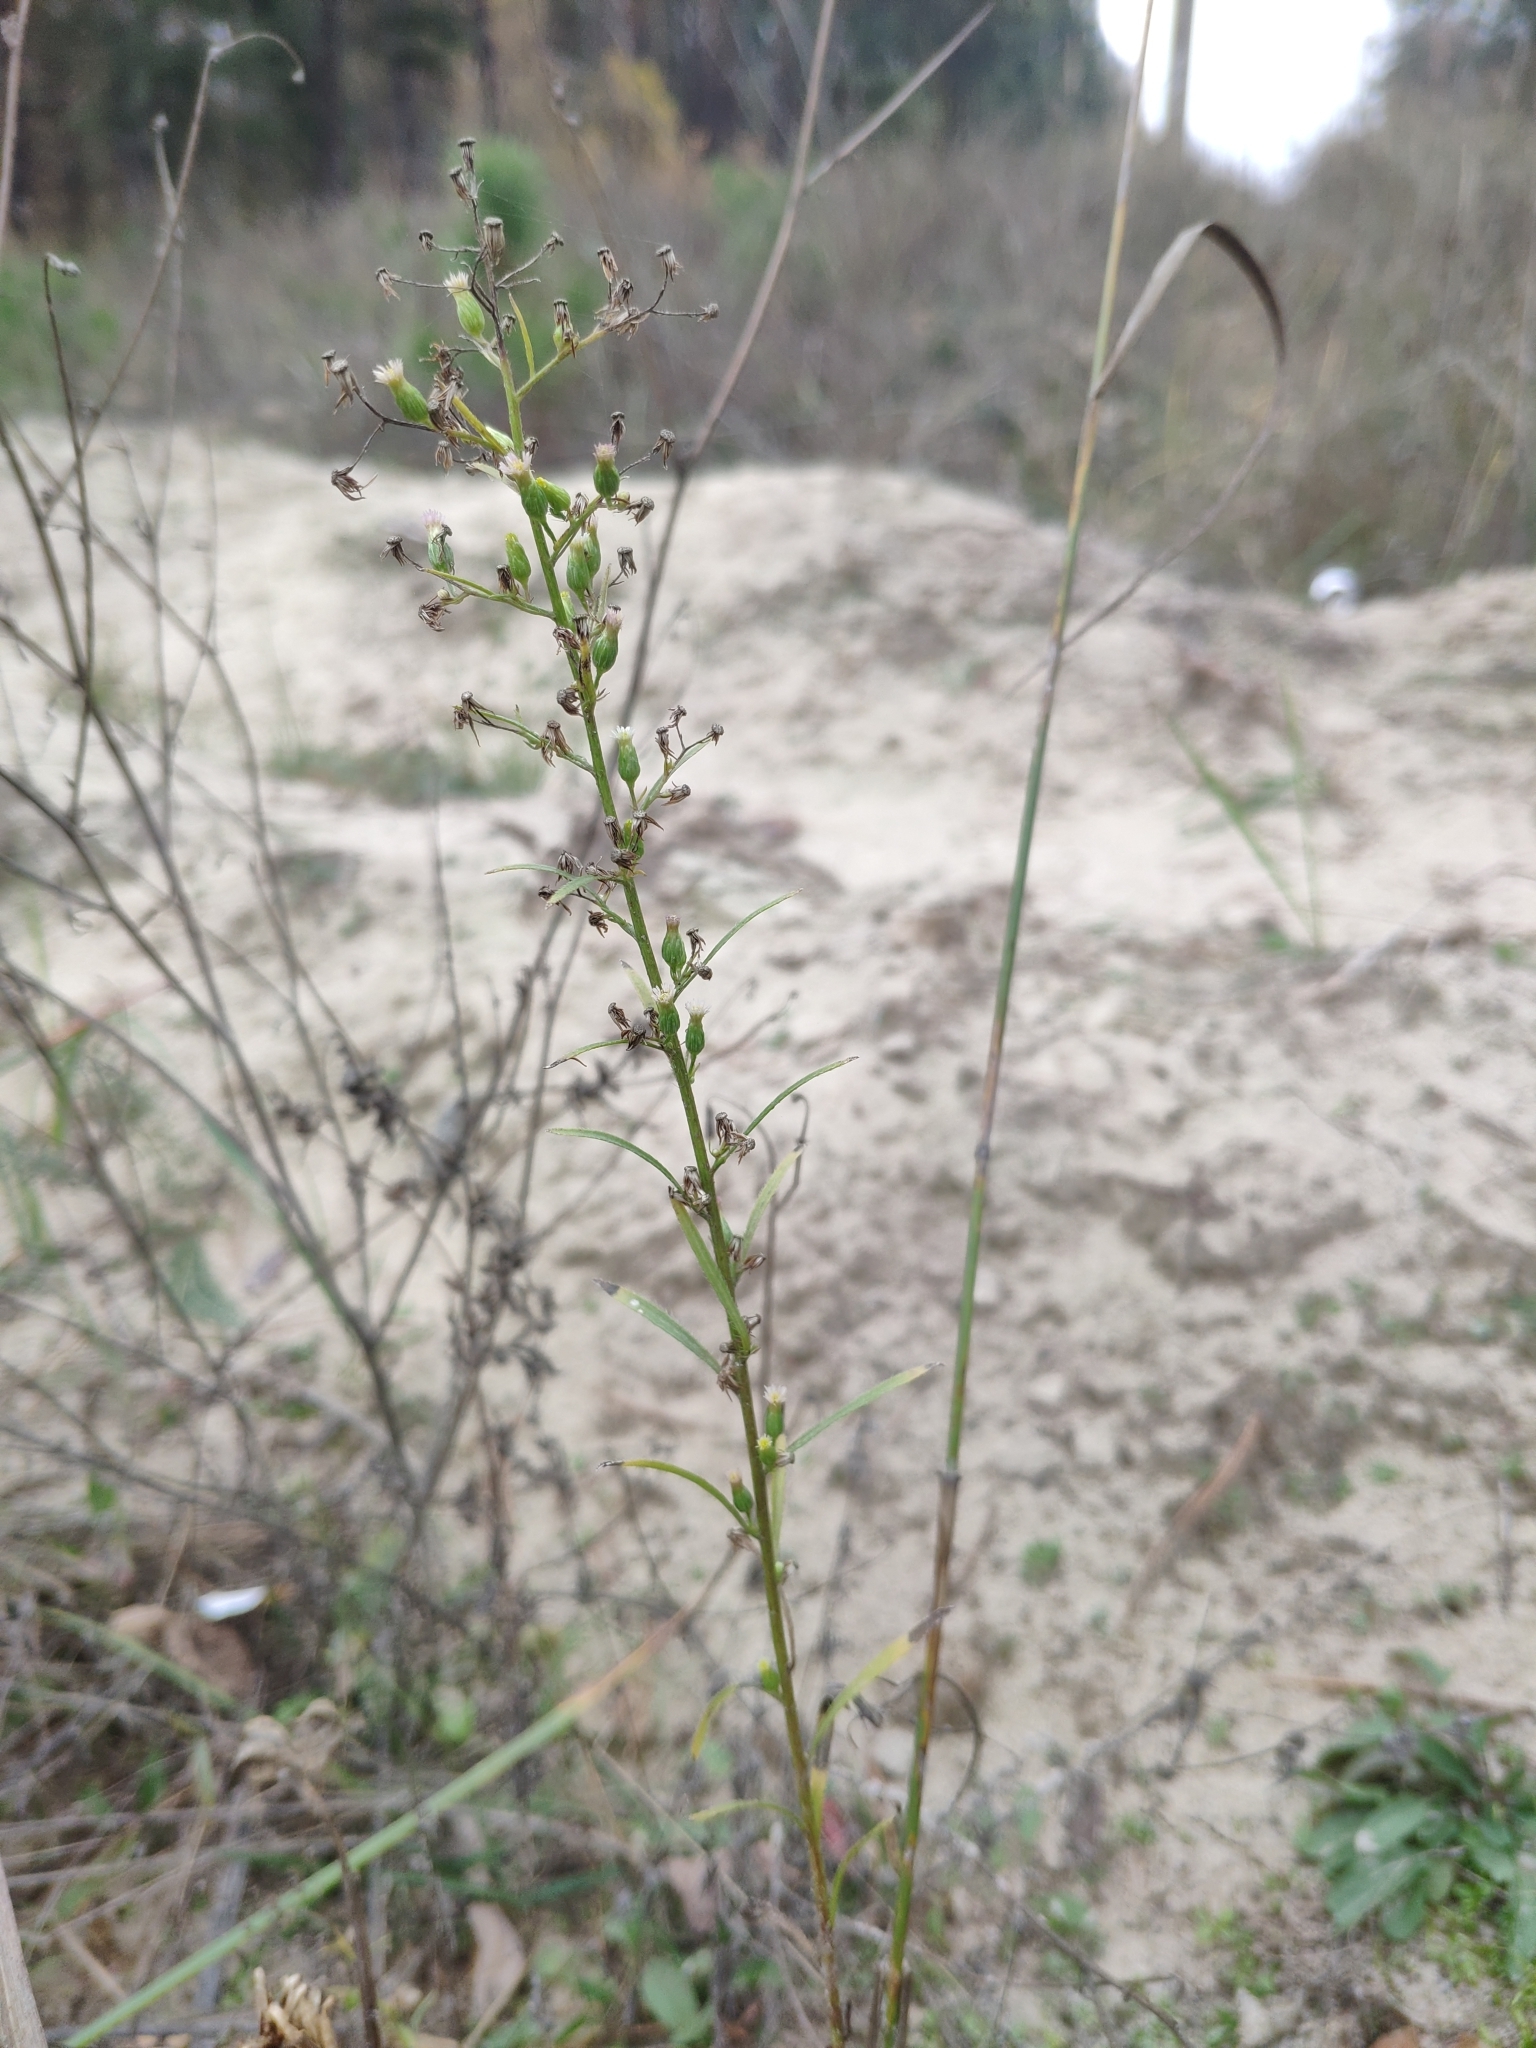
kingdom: Plantae
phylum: Tracheophyta
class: Magnoliopsida
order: Asterales
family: Asteraceae
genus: Erigeron
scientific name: Erigeron canadensis
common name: Canadian fleabane
